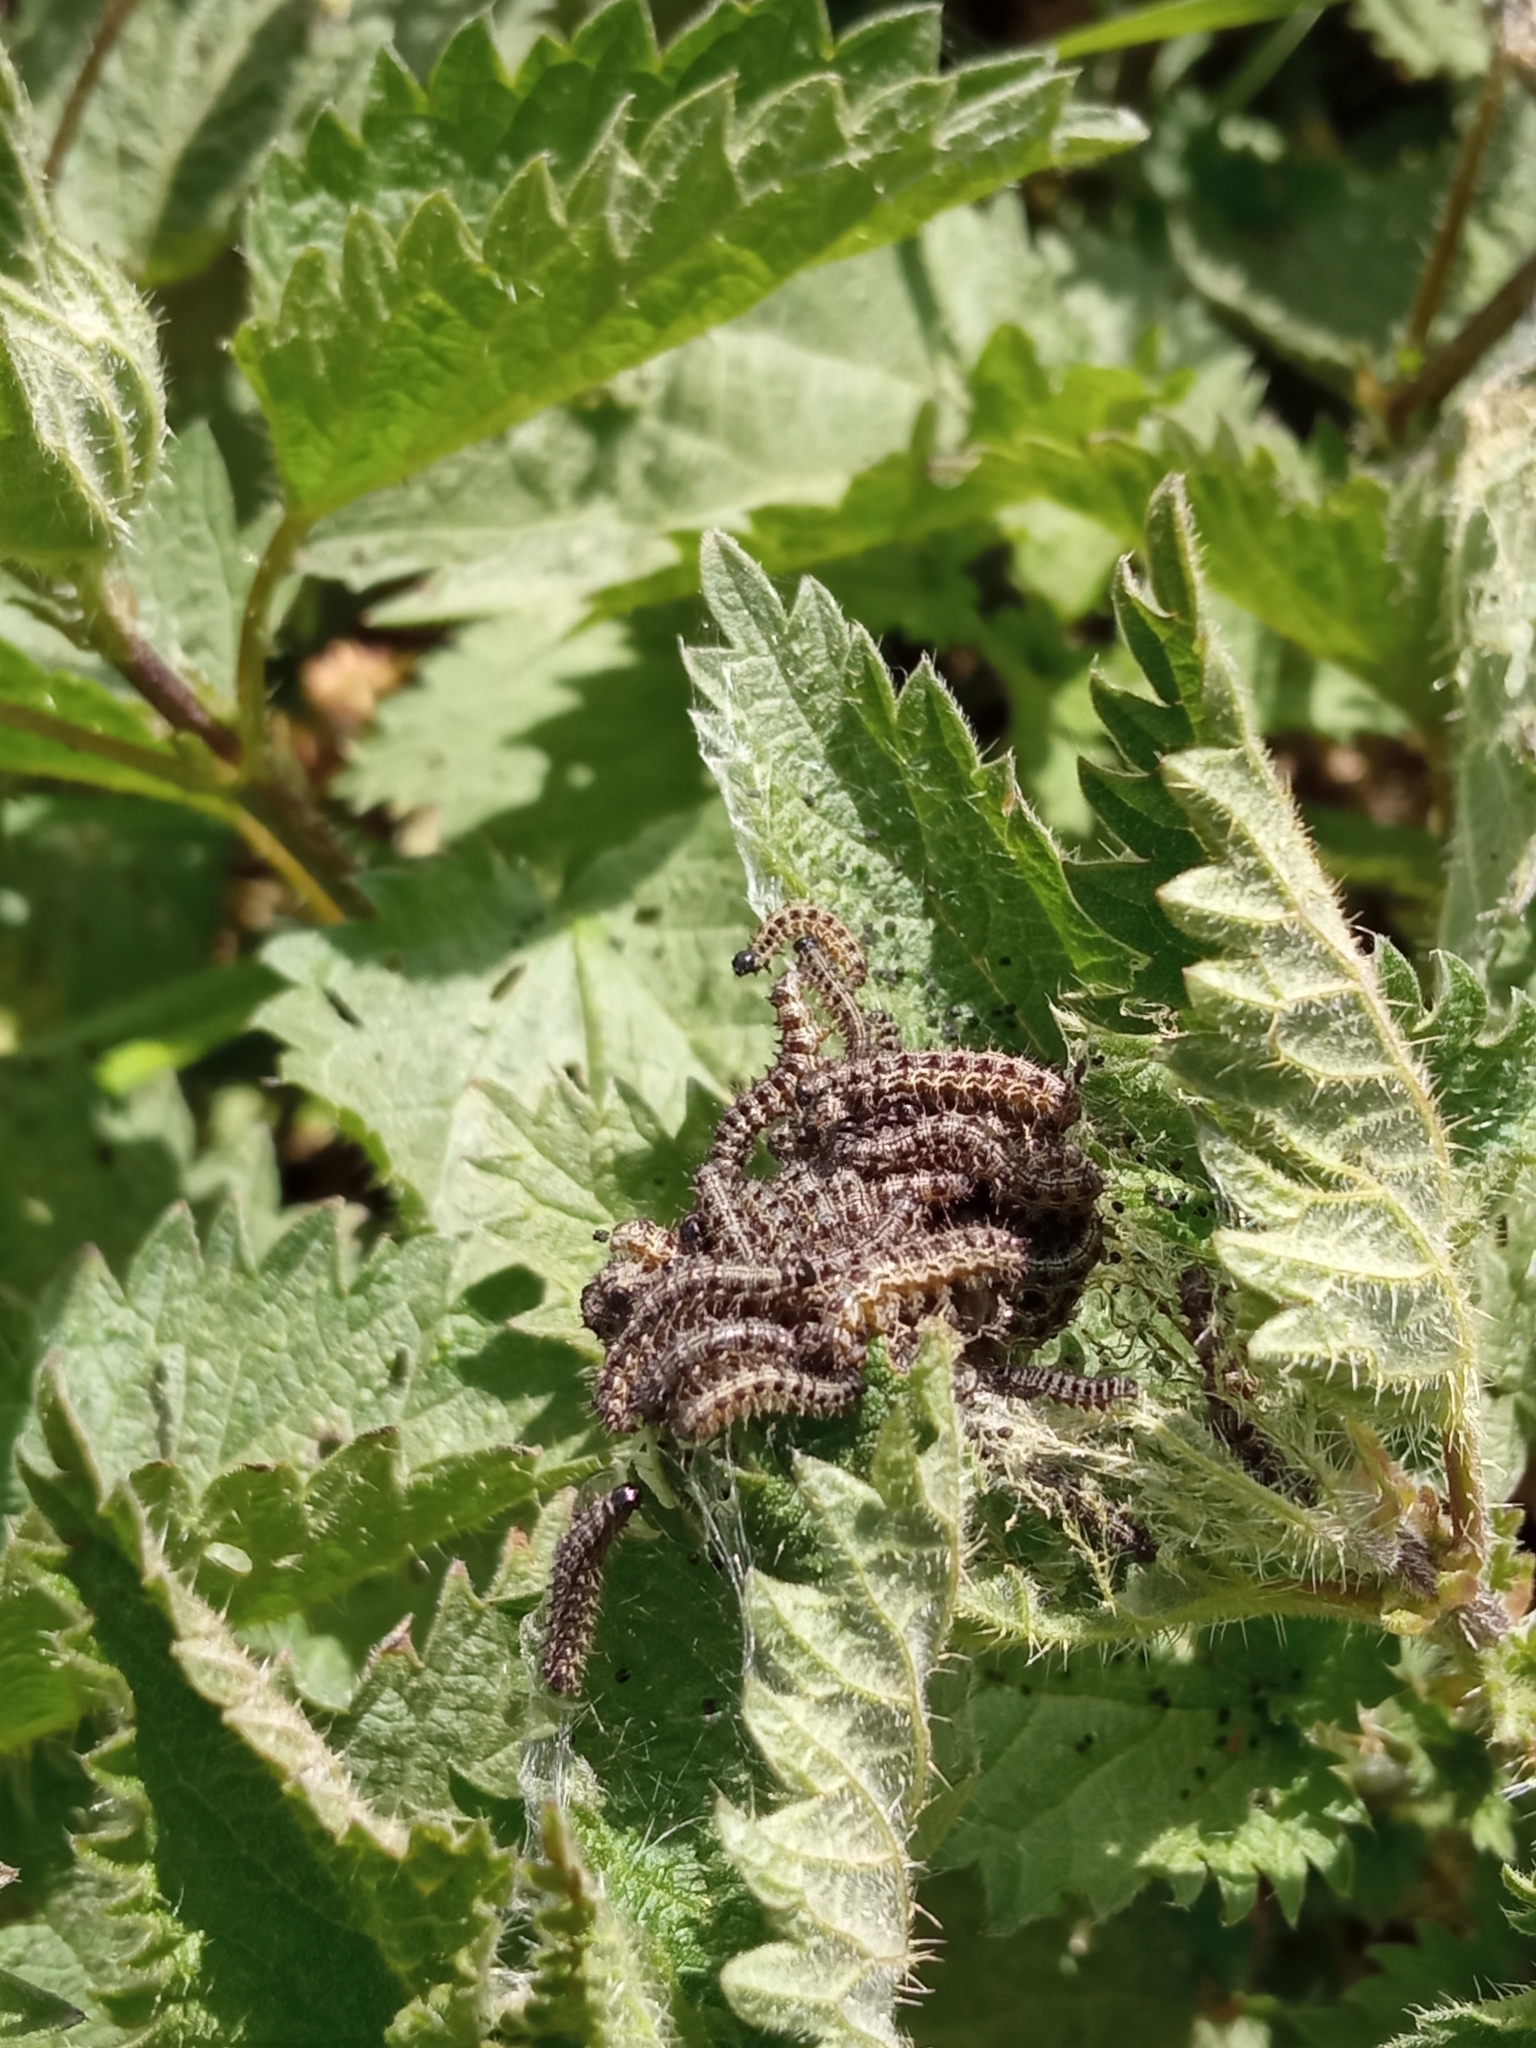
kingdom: Animalia
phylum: Arthropoda
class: Insecta
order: Lepidoptera
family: Nymphalidae
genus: Aglais
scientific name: Aglais urticae
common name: Small tortoiseshell
